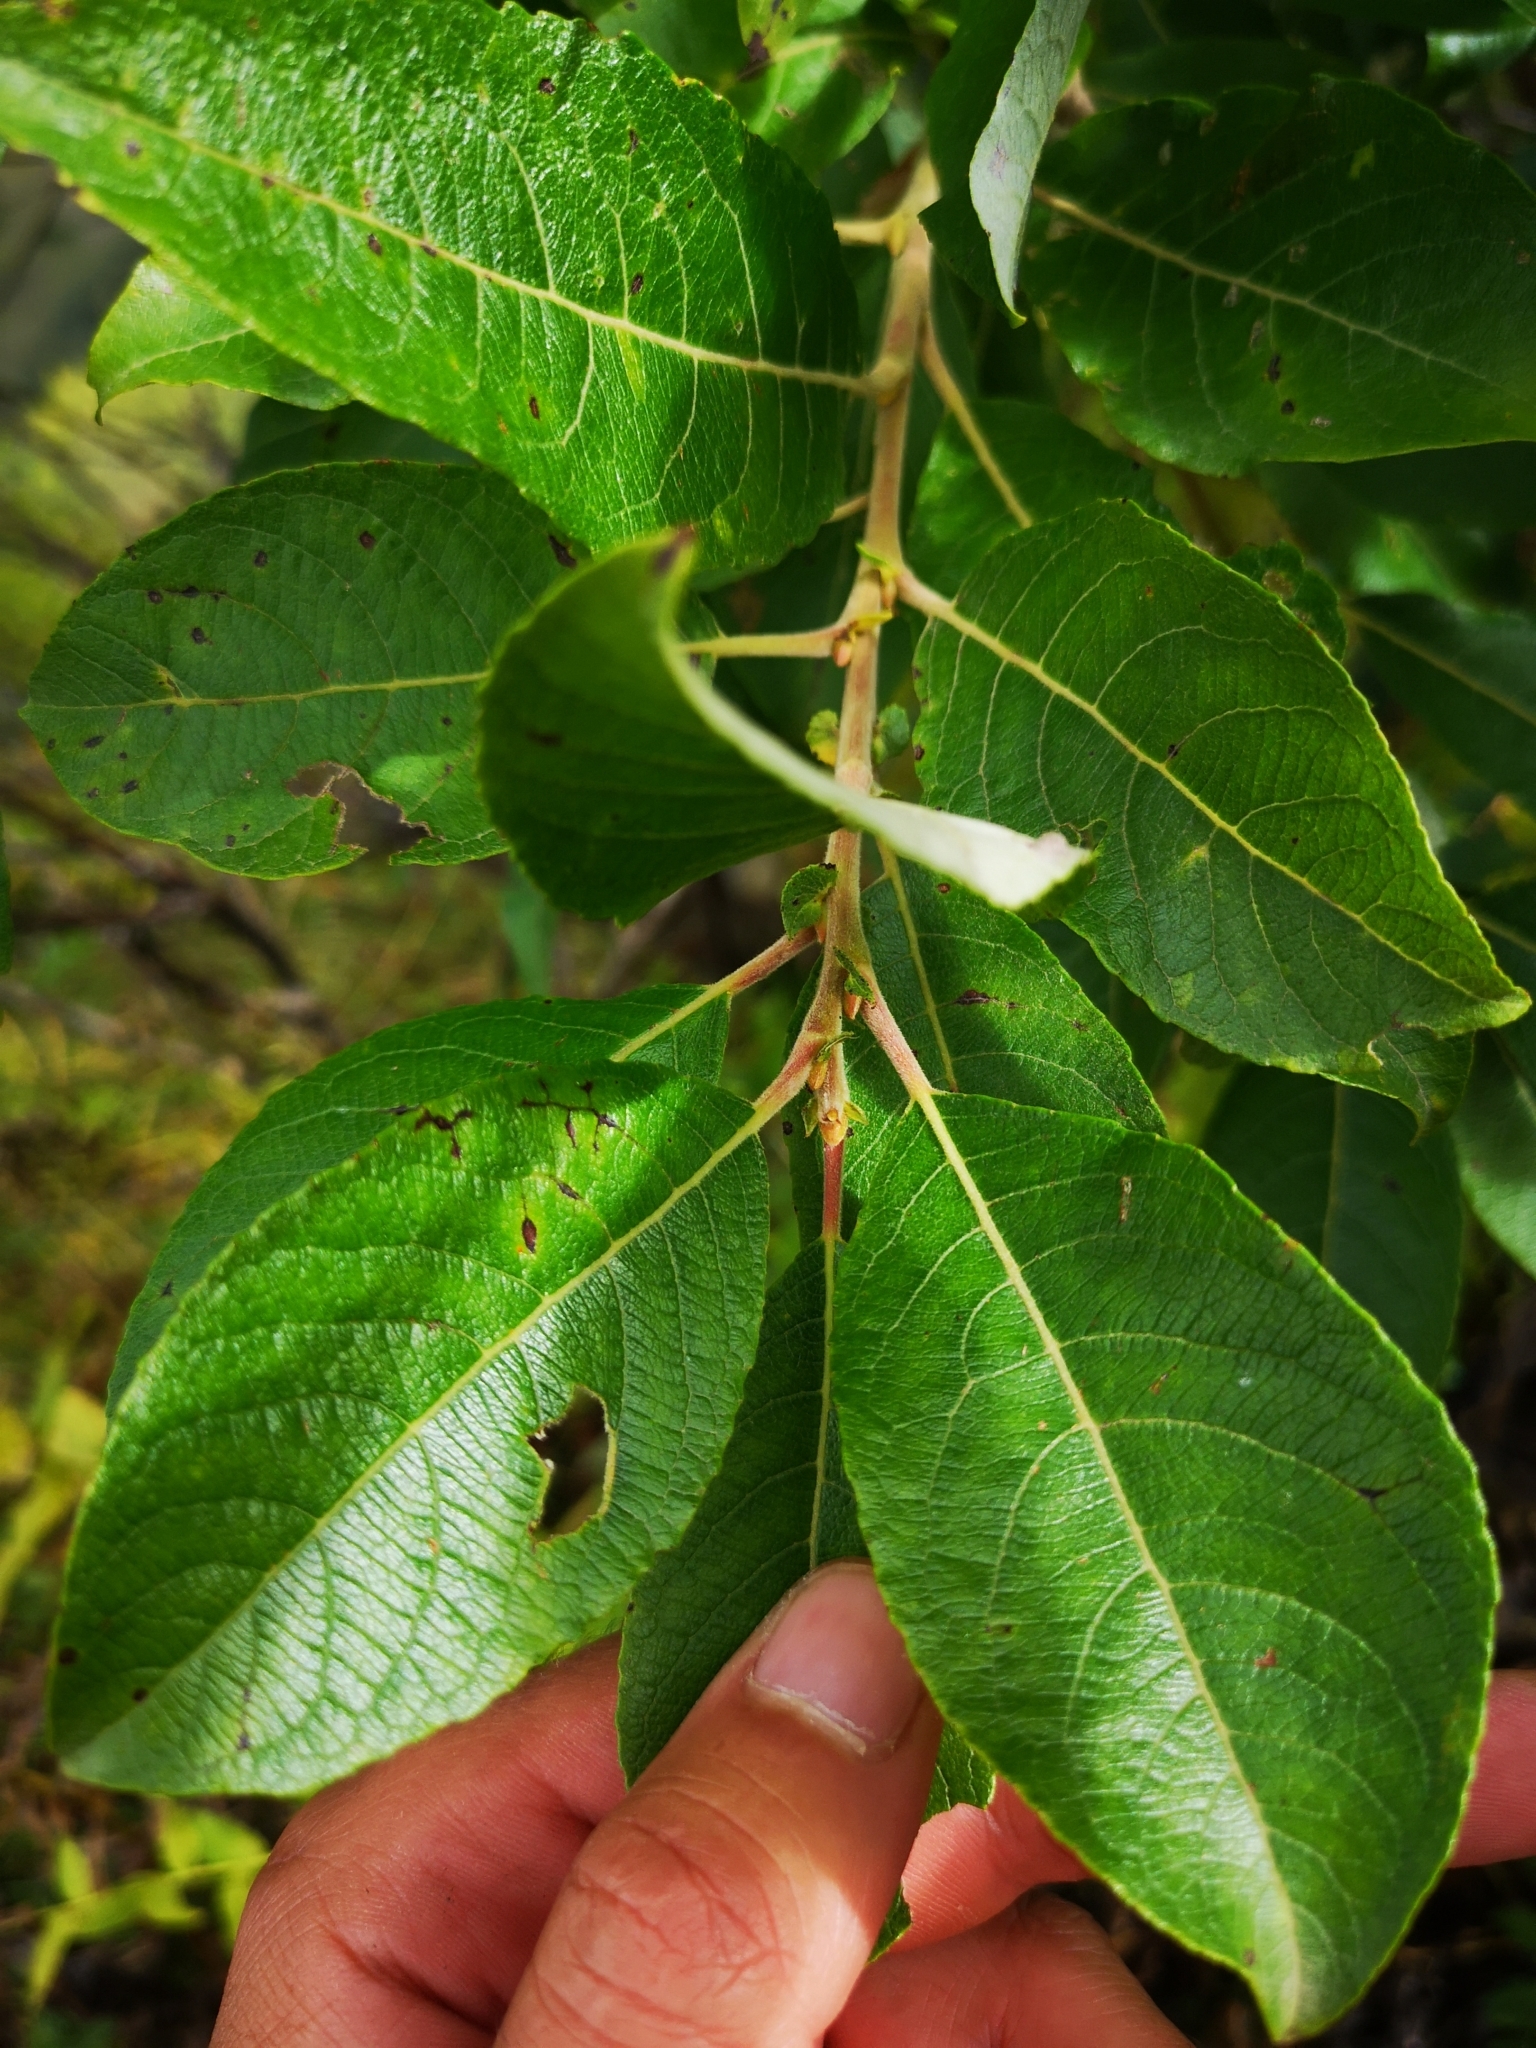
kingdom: Plantae
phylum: Tracheophyta
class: Magnoliopsida
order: Malpighiales
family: Salicaceae
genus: Salix
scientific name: Salix caprea
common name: Goat willow
